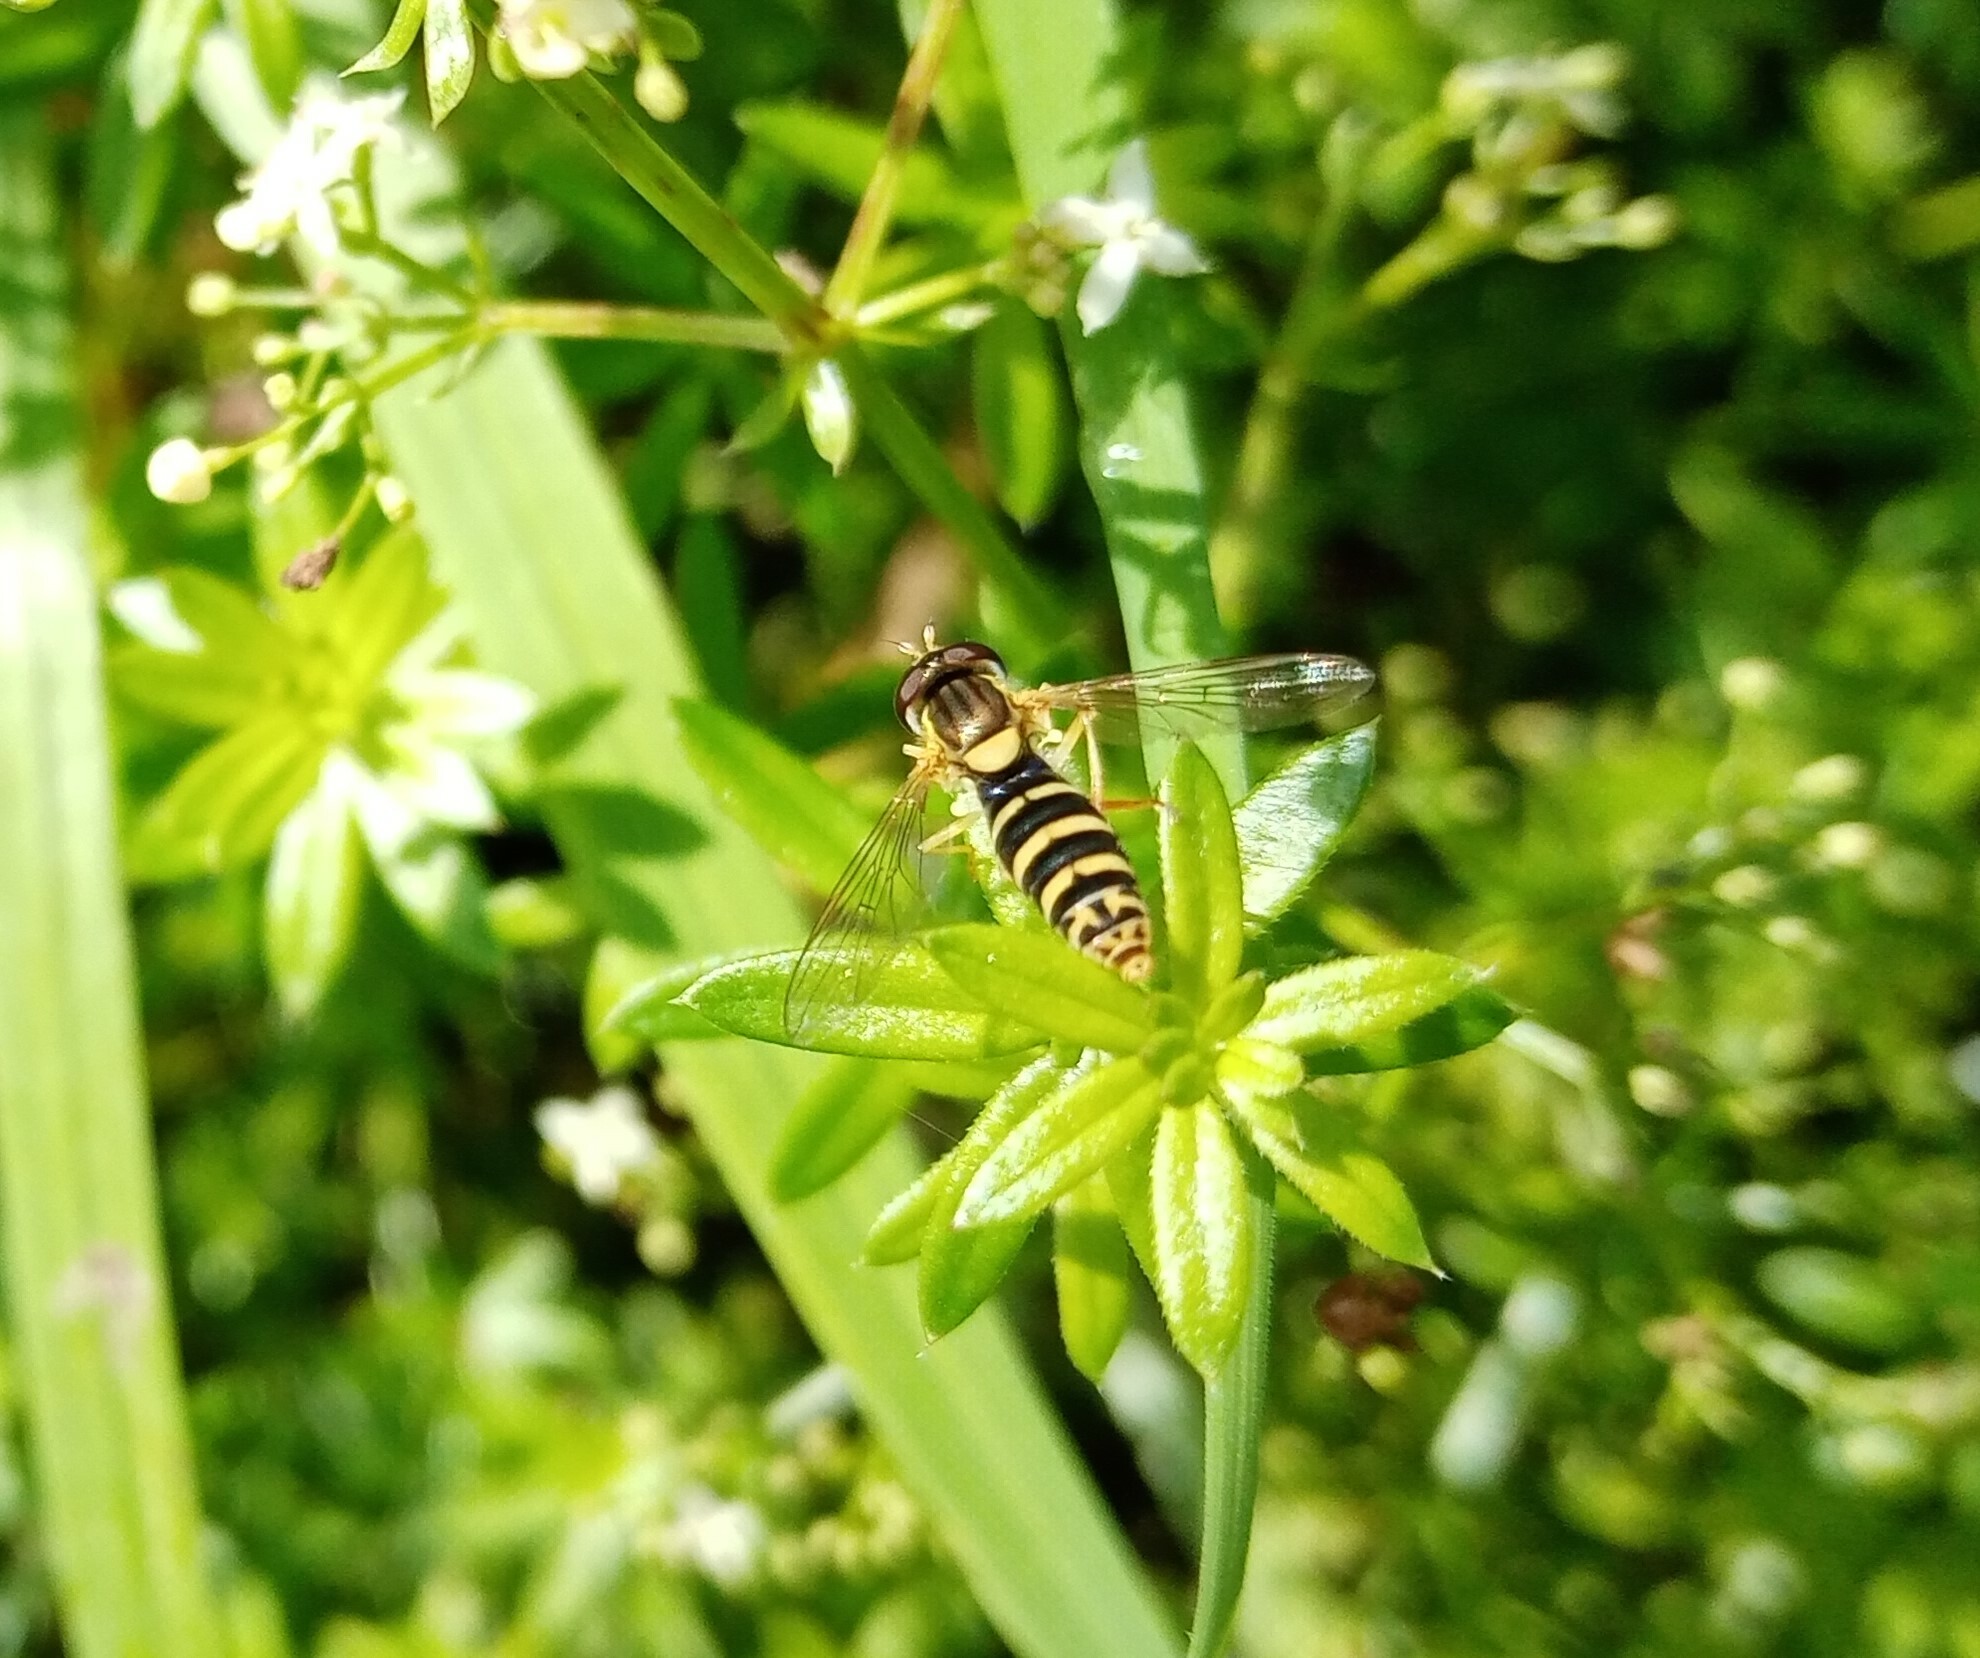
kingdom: Animalia
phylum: Arthropoda
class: Insecta
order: Diptera
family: Syrphidae
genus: Sphaerophoria
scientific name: Sphaerophoria
